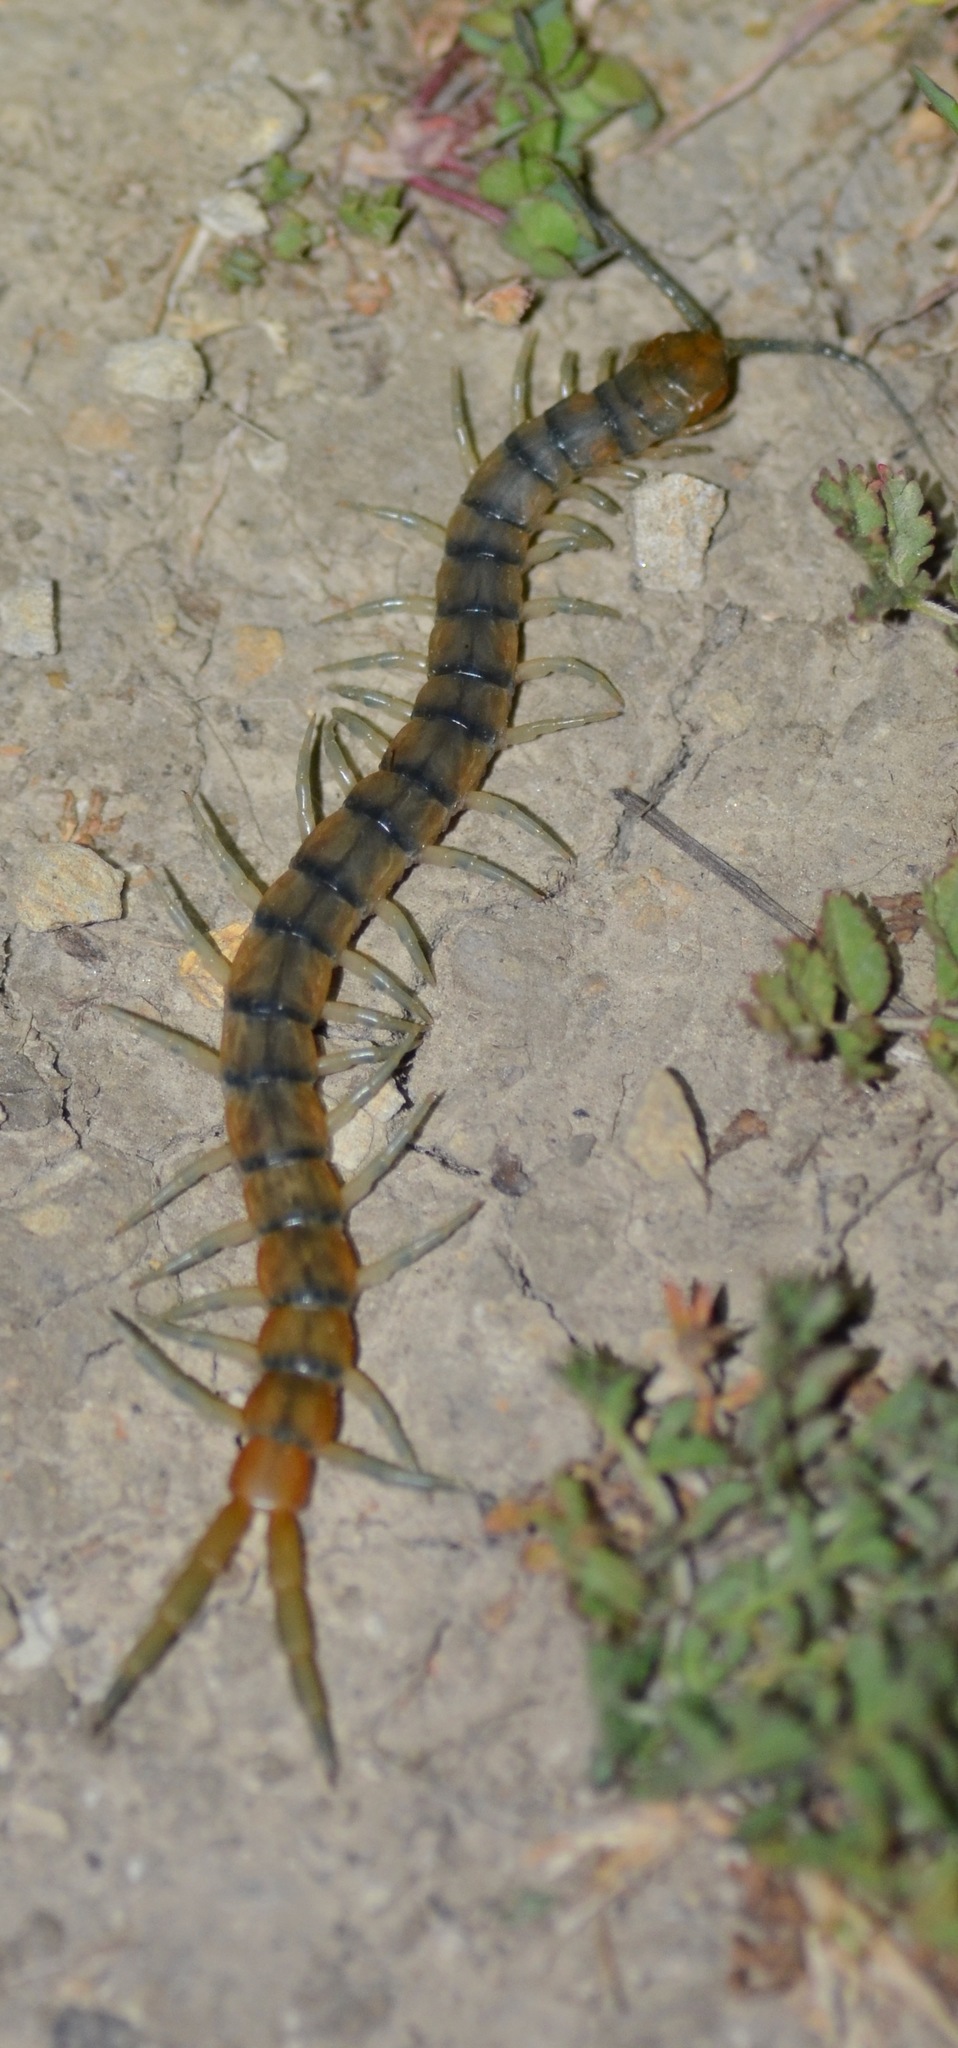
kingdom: Animalia
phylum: Arthropoda
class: Chilopoda
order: Scolopendromorpha
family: Scolopendridae
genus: Scolopendra
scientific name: Scolopendra polymorpha
